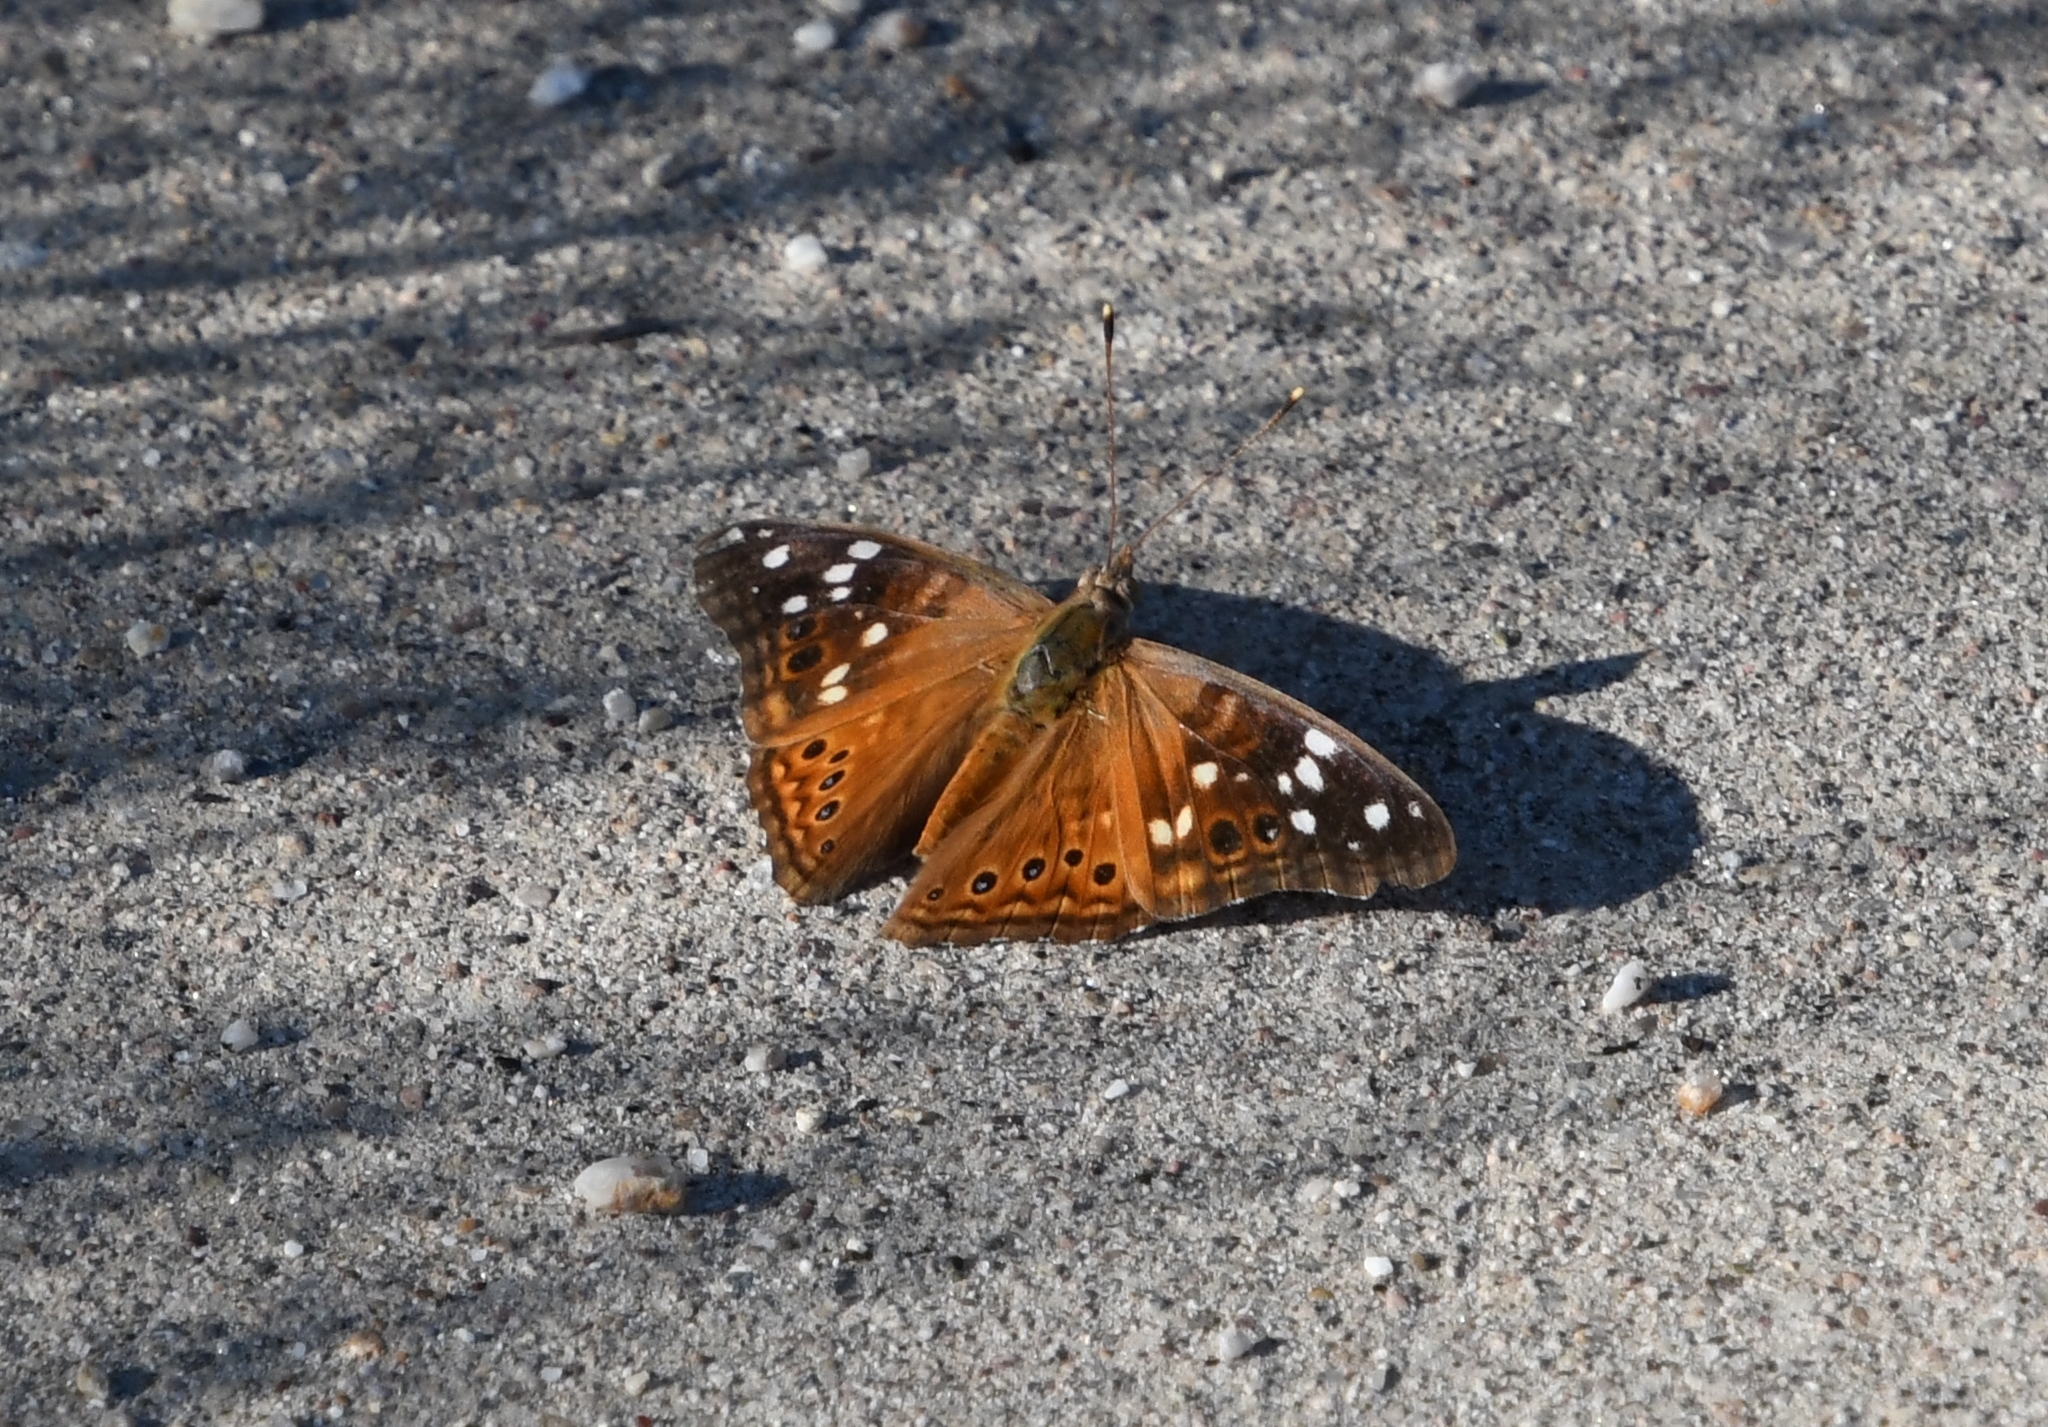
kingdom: Animalia
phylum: Arthropoda
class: Insecta
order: Lepidoptera
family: Nymphalidae
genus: Asterocampa
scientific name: Asterocampa leilia
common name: Empress leilia
